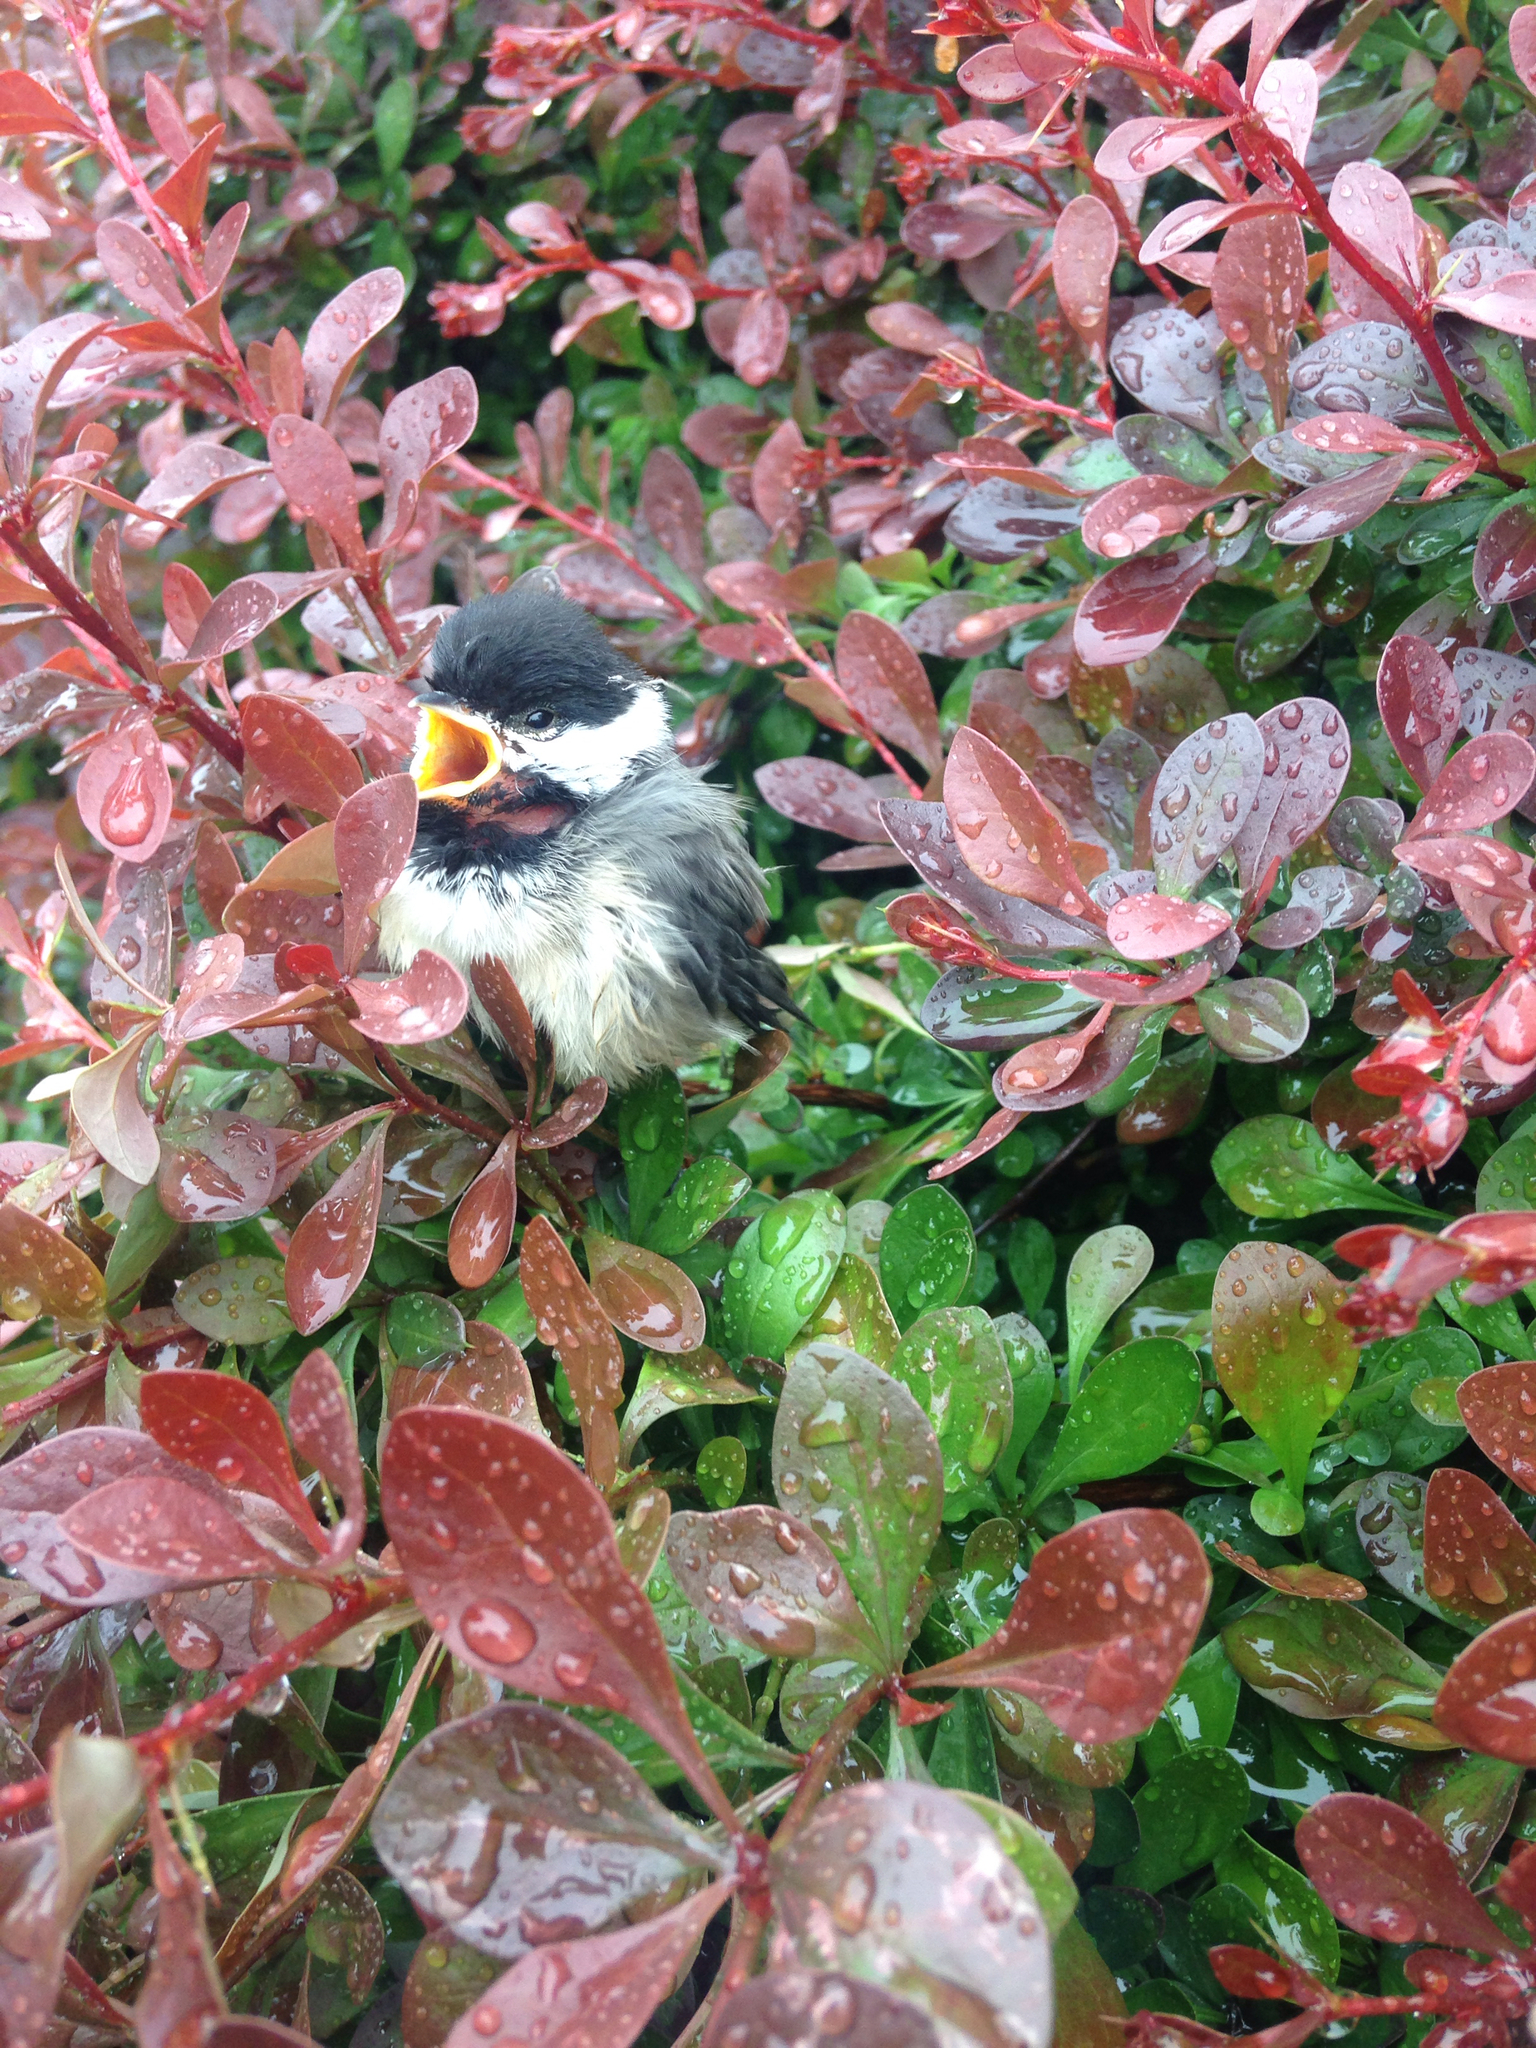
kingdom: Animalia
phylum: Chordata
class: Aves
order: Passeriformes
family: Paridae
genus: Poecile
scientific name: Poecile carolinensis
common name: Carolina chickadee
